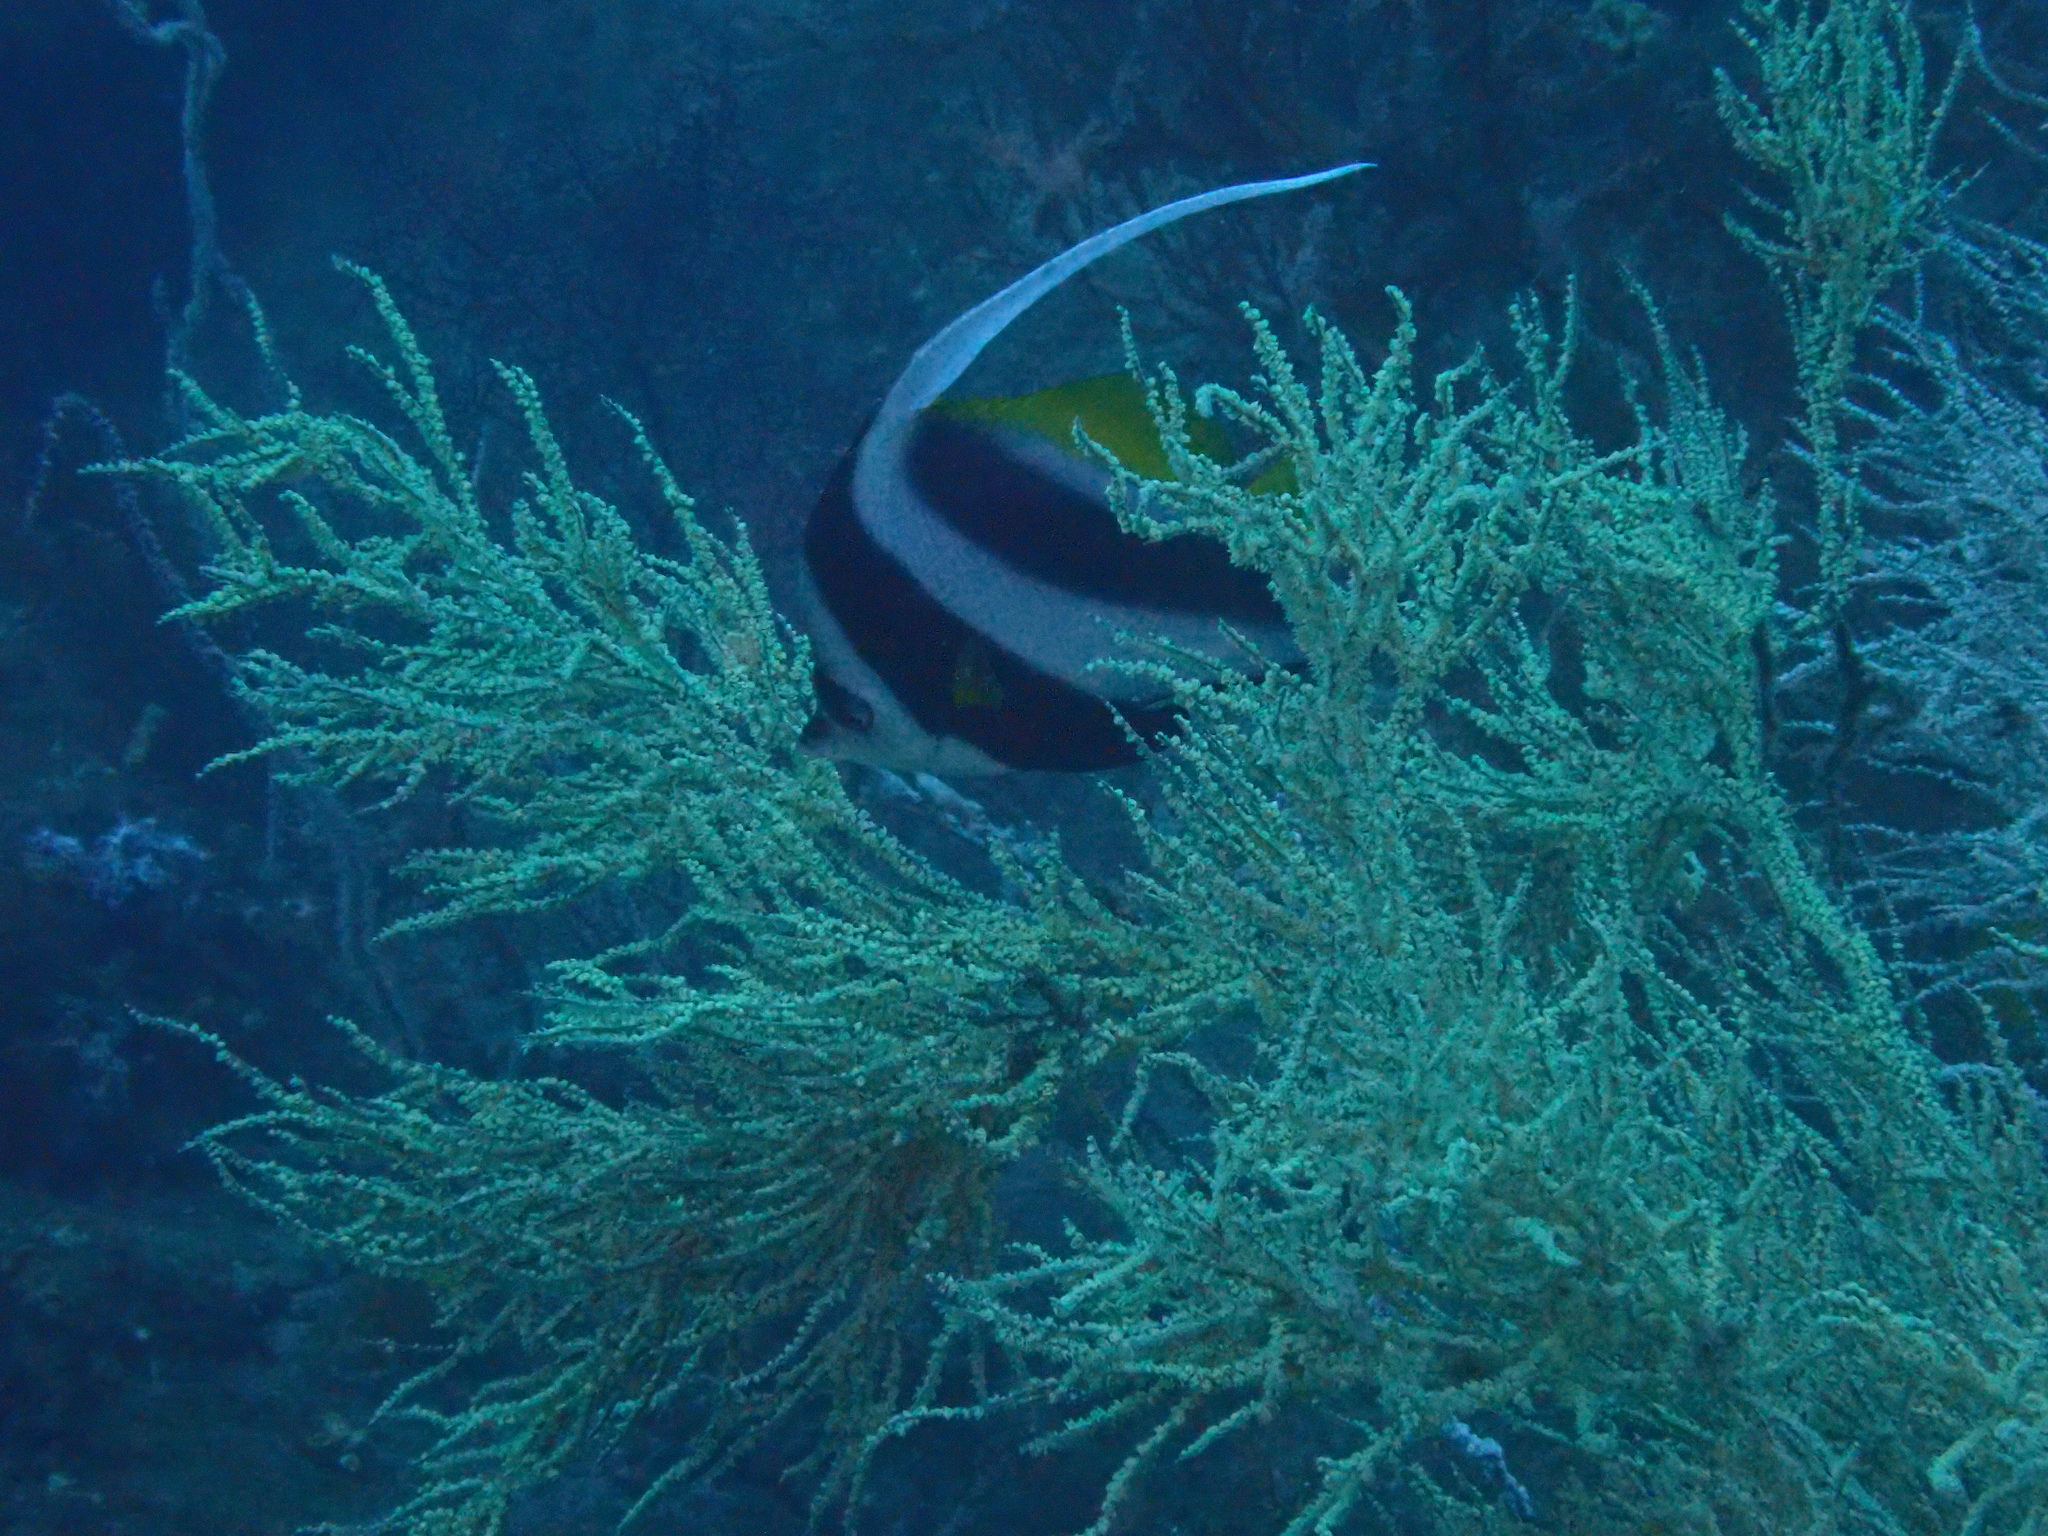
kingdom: Animalia
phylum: Chordata
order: Perciformes
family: Chaetodontidae
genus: Heniochus
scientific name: Heniochus diphreutes
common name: Pennantfish
